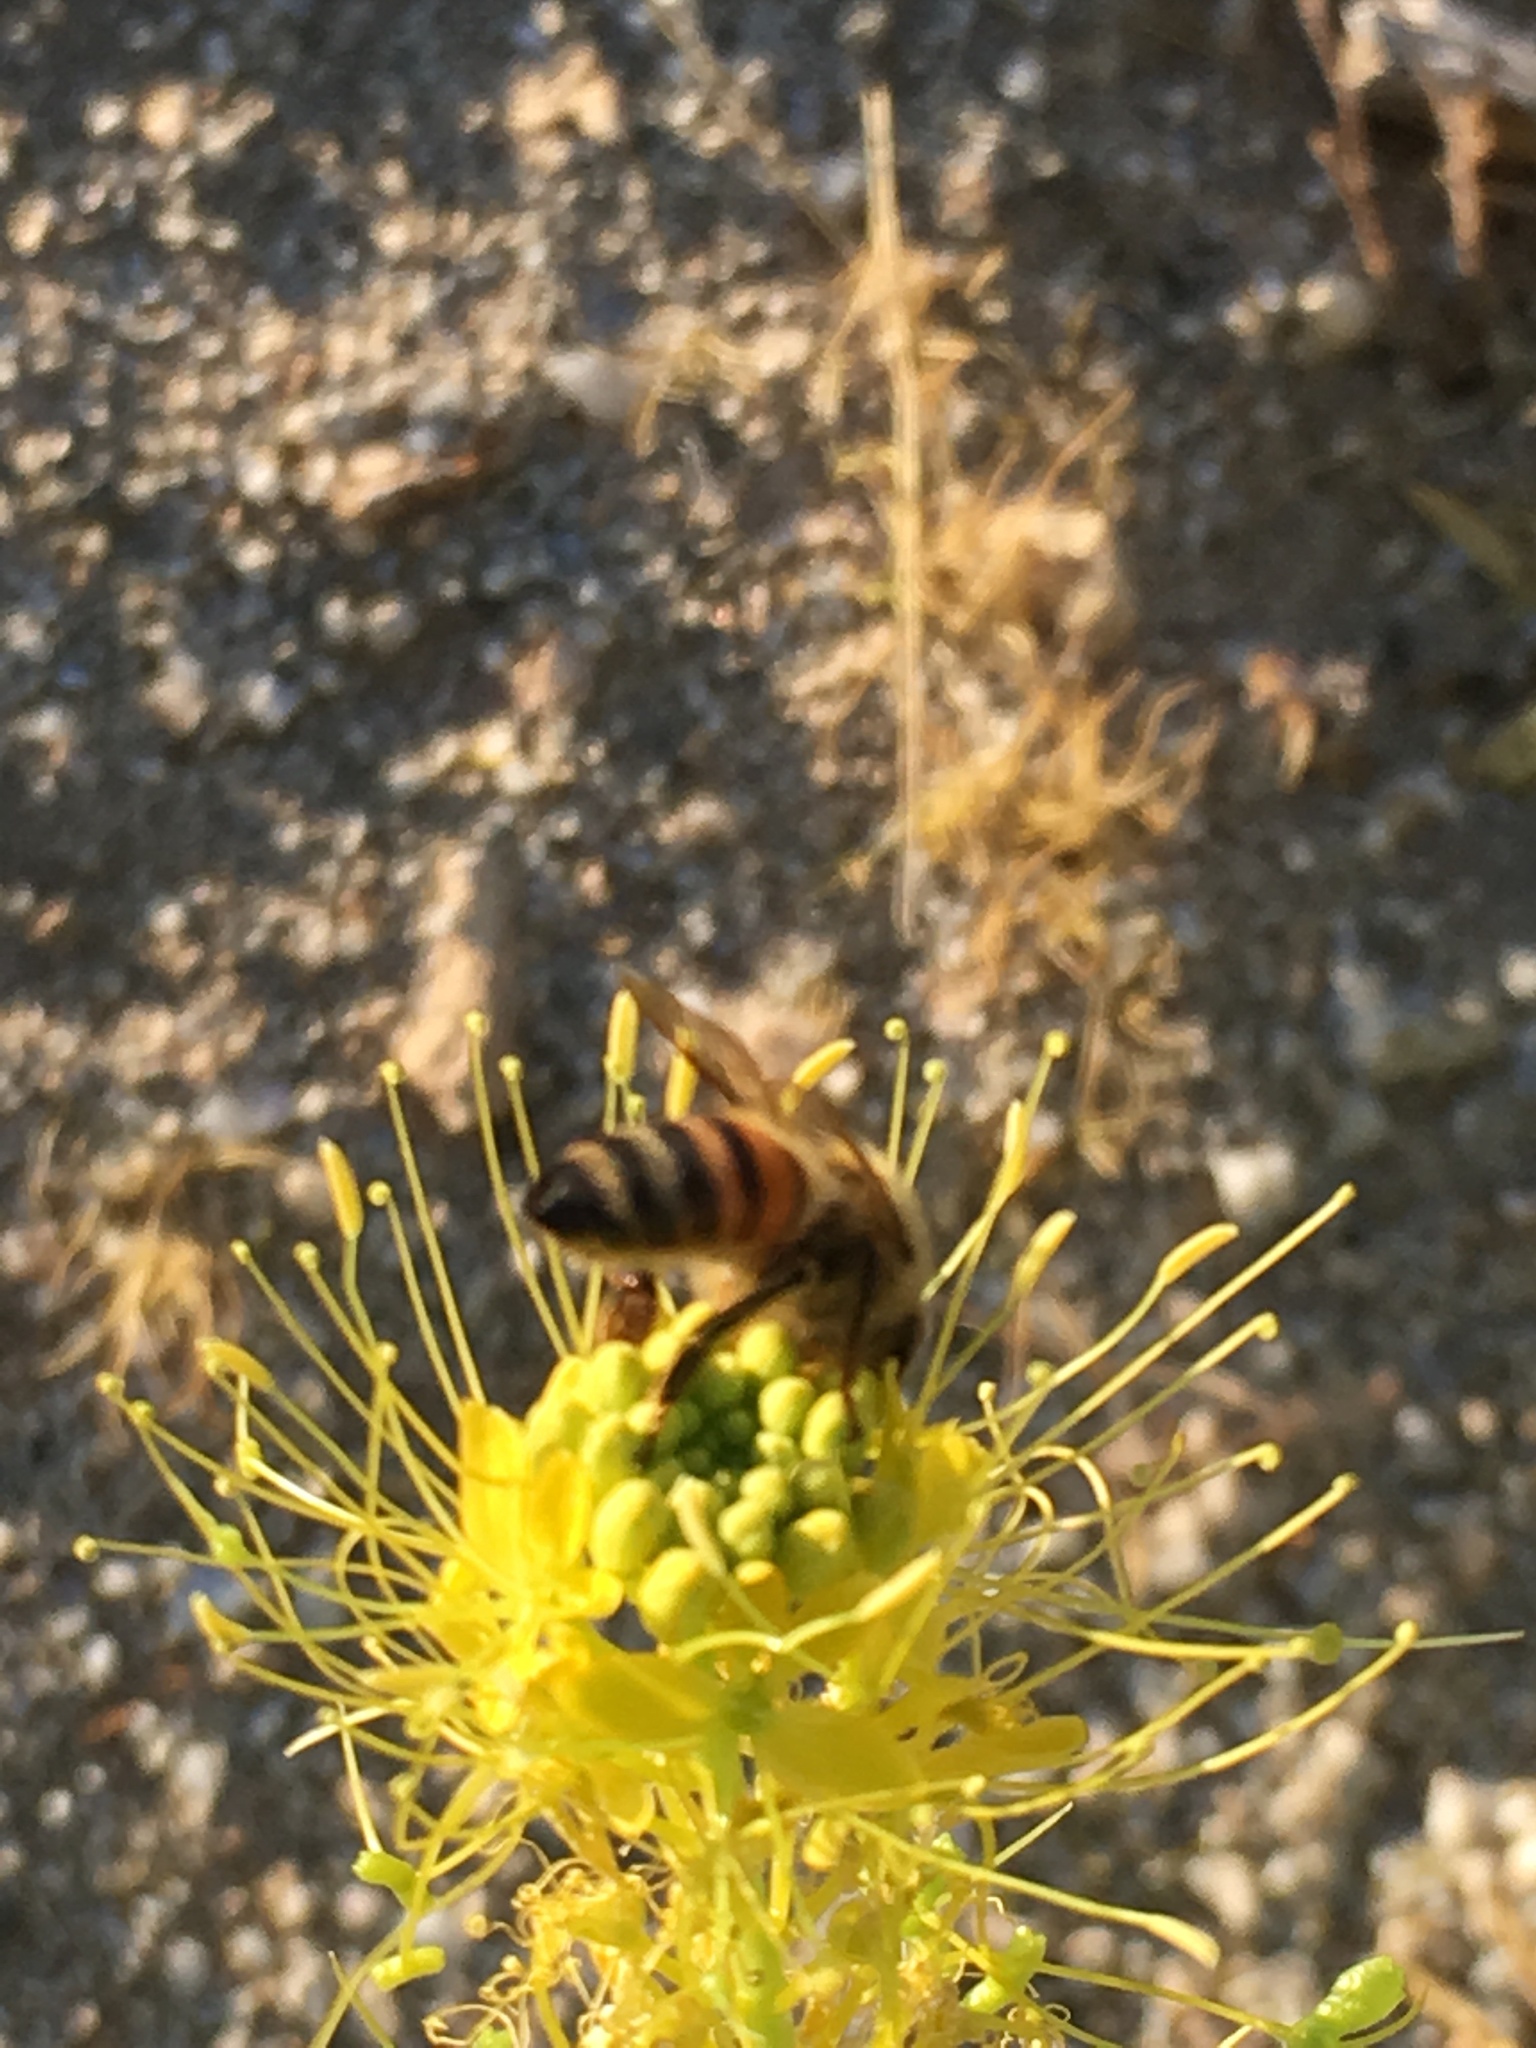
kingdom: Animalia
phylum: Arthropoda
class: Insecta
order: Hymenoptera
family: Apidae
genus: Apis
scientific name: Apis mellifera
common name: Honey bee
